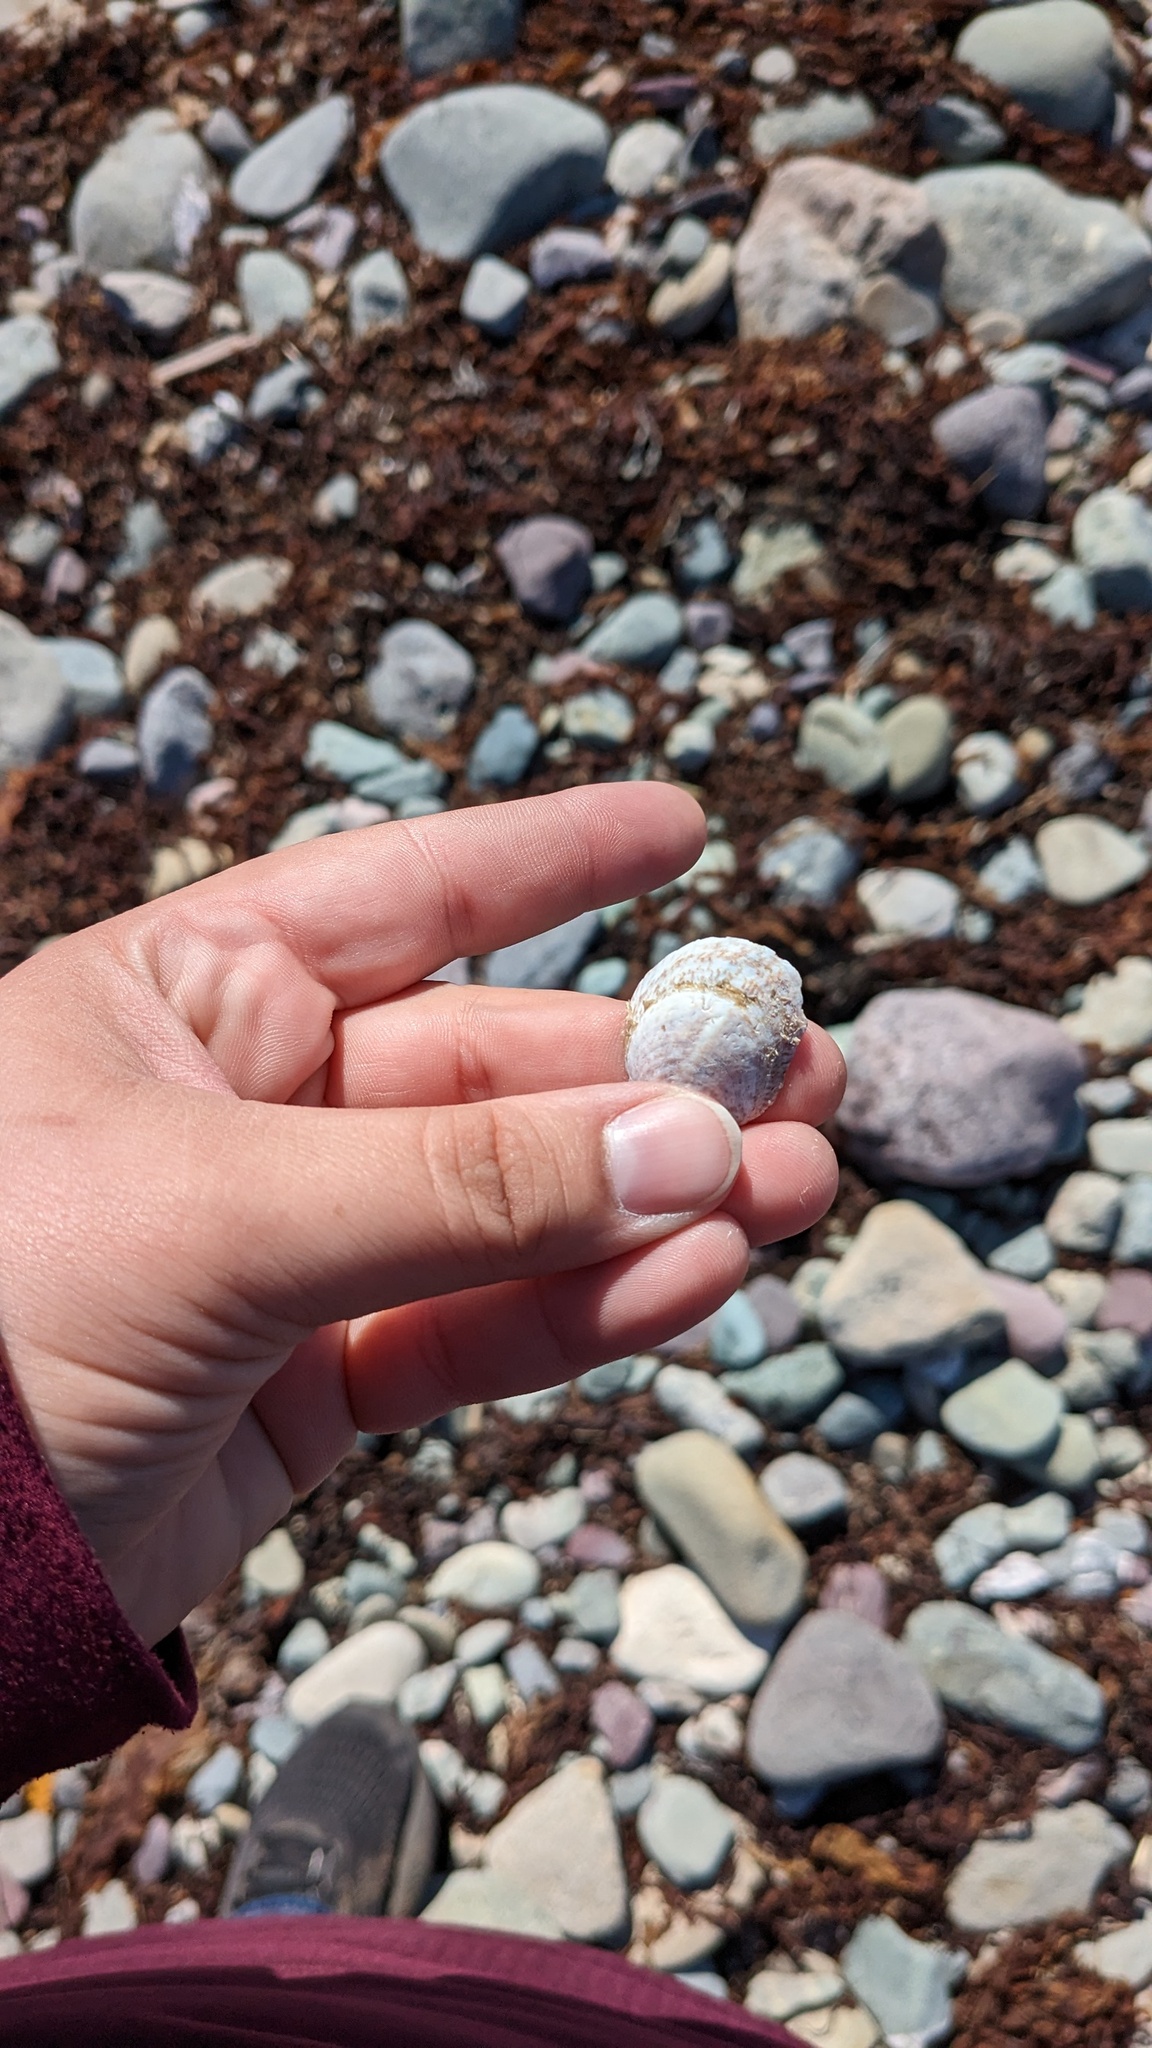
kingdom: Animalia
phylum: Mollusca
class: Gastropoda
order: Littorinimorpha
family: Calyptraeidae
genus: Crepidula
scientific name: Crepidula fornicata
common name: Slipper limpet
